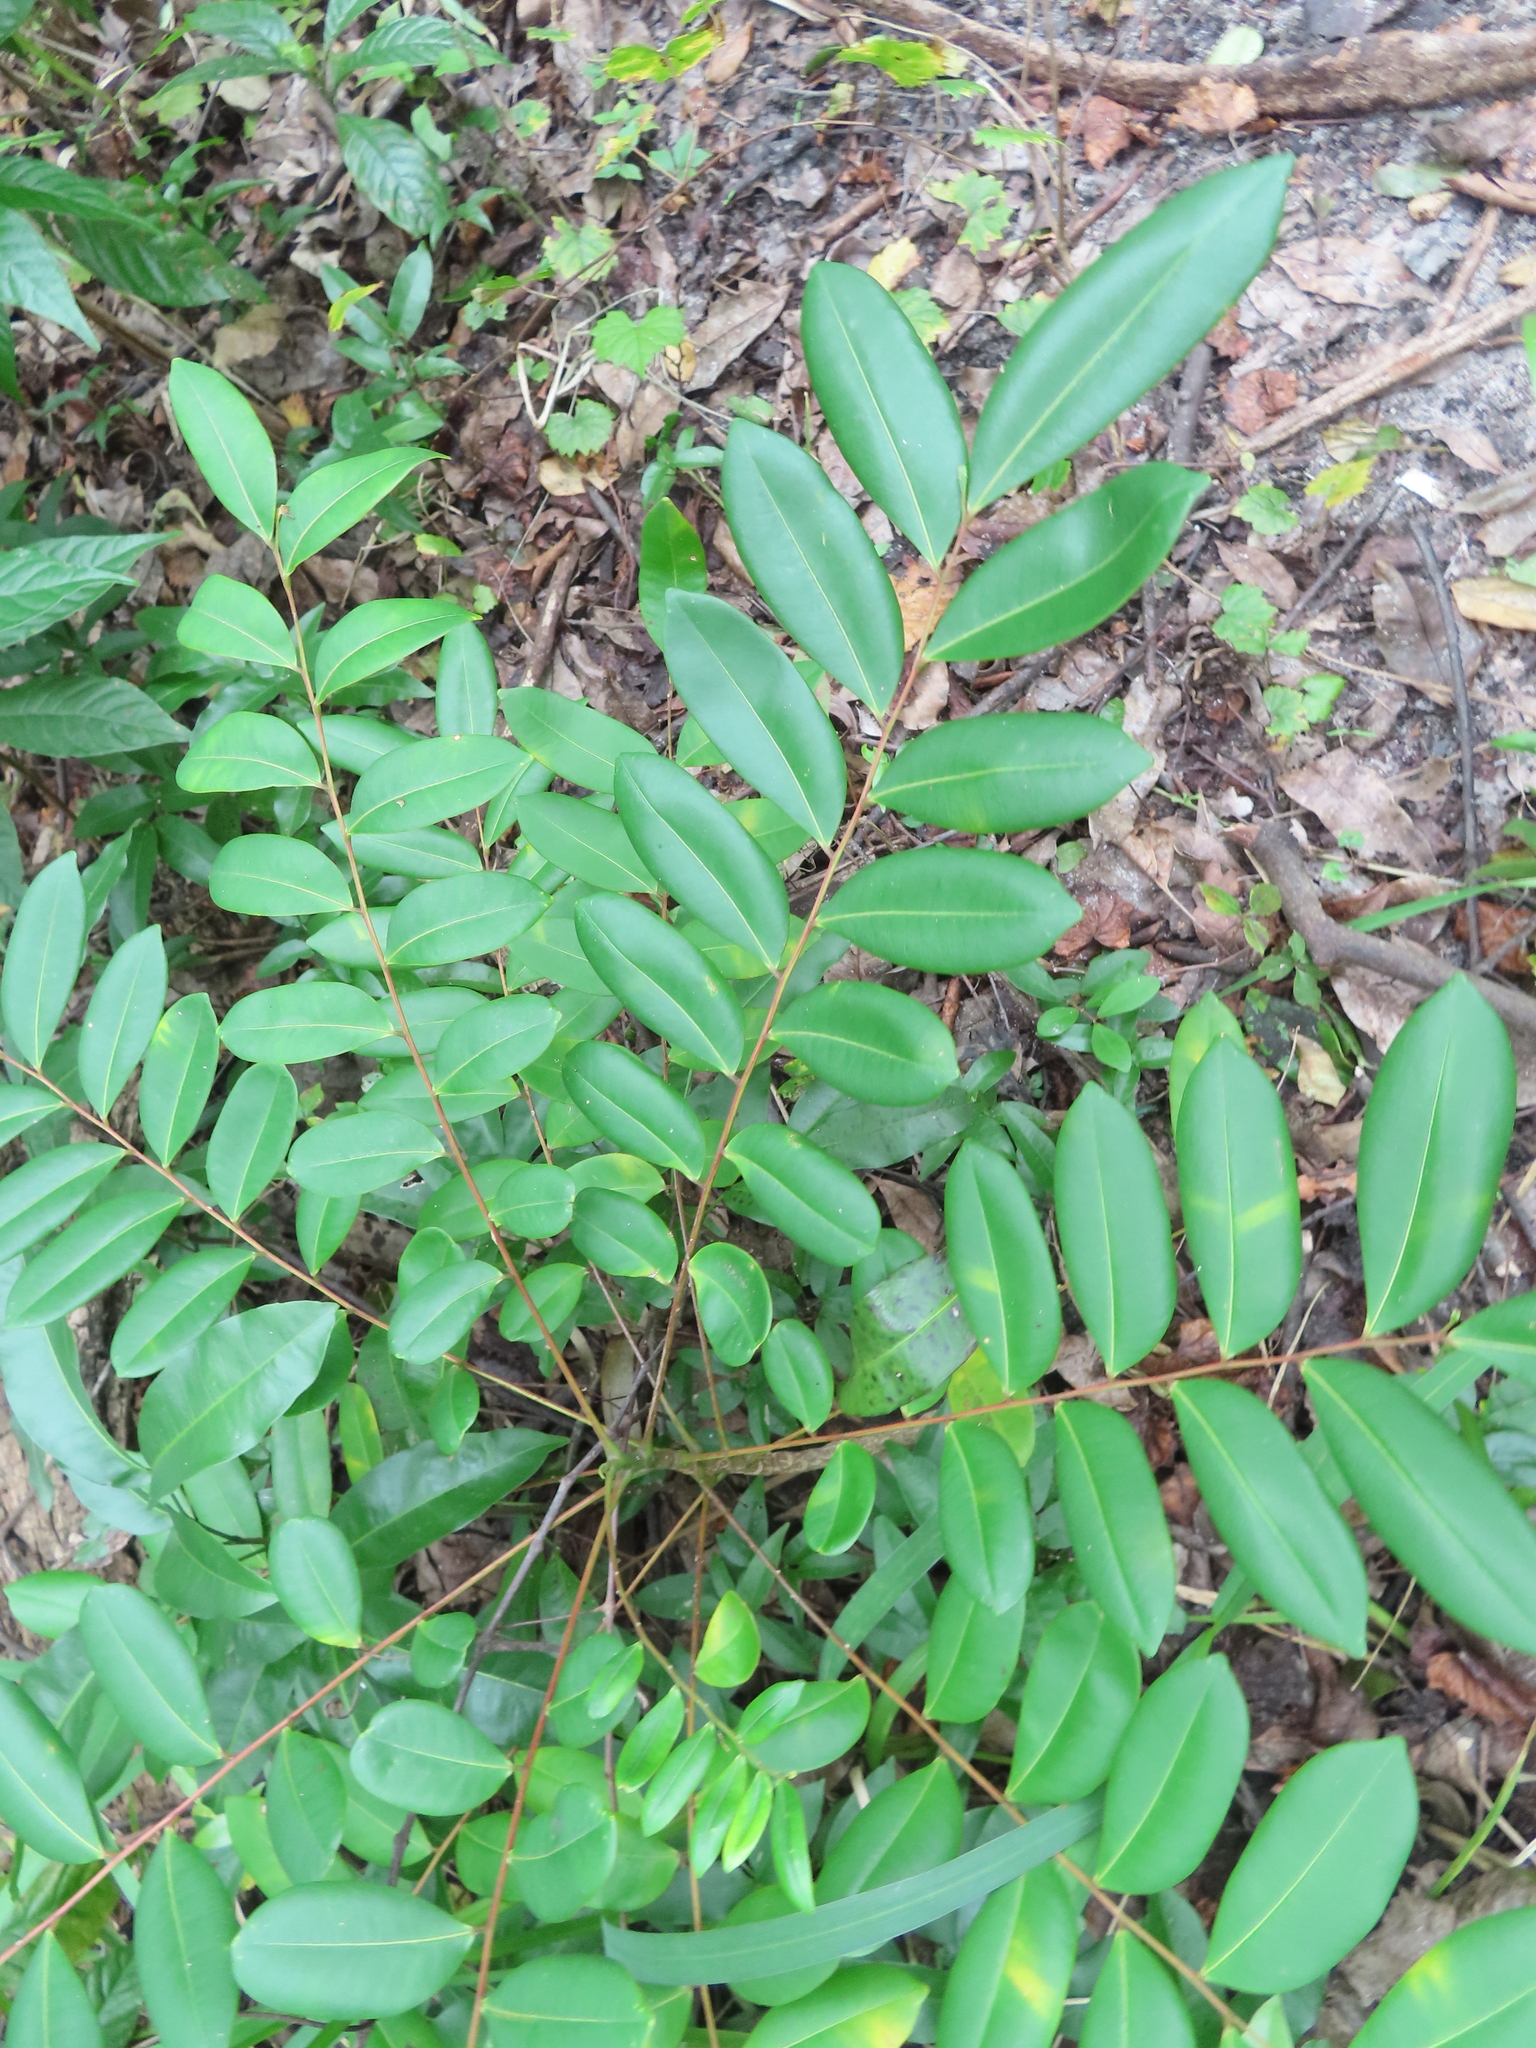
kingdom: Plantae
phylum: Tracheophyta
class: Magnoliopsida
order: Sapindales
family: Simaroubaceae
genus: Simarouba
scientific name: Simarouba glauca
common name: Dysentery-bark
